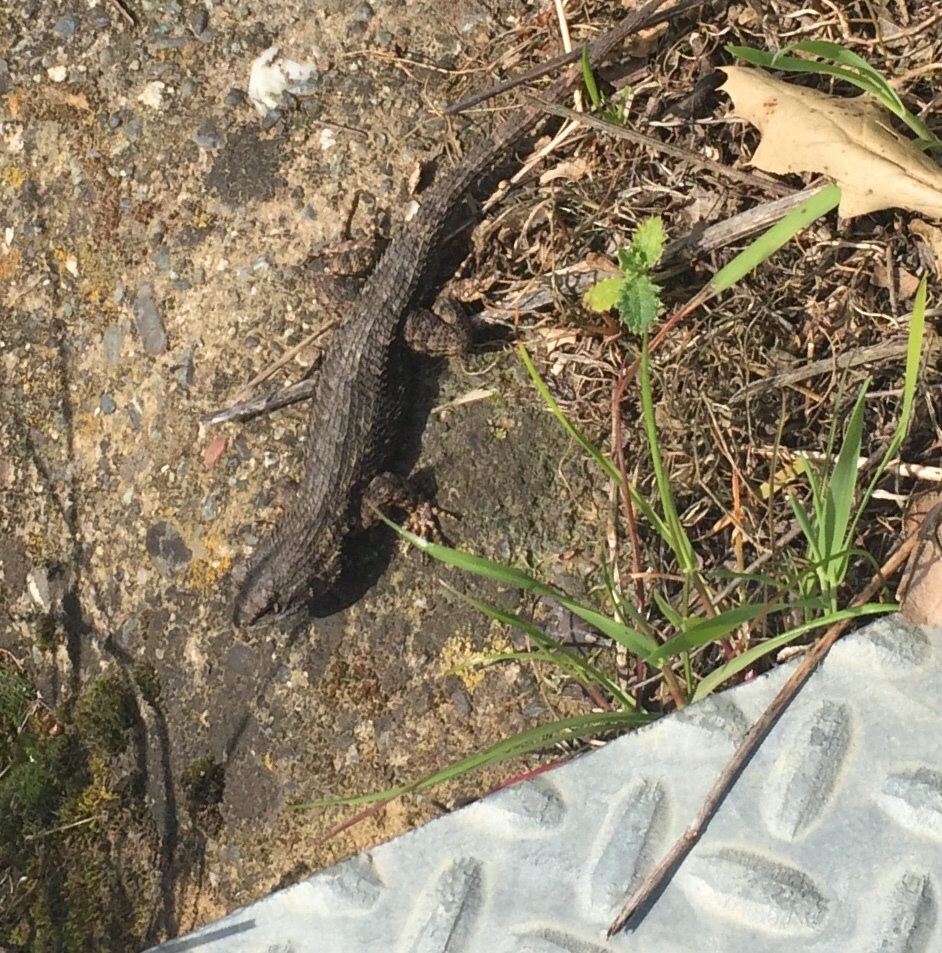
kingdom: Animalia
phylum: Chordata
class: Squamata
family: Phrynosomatidae
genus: Sceloporus
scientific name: Sceloporus occidentalis
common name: Western fence lizard
